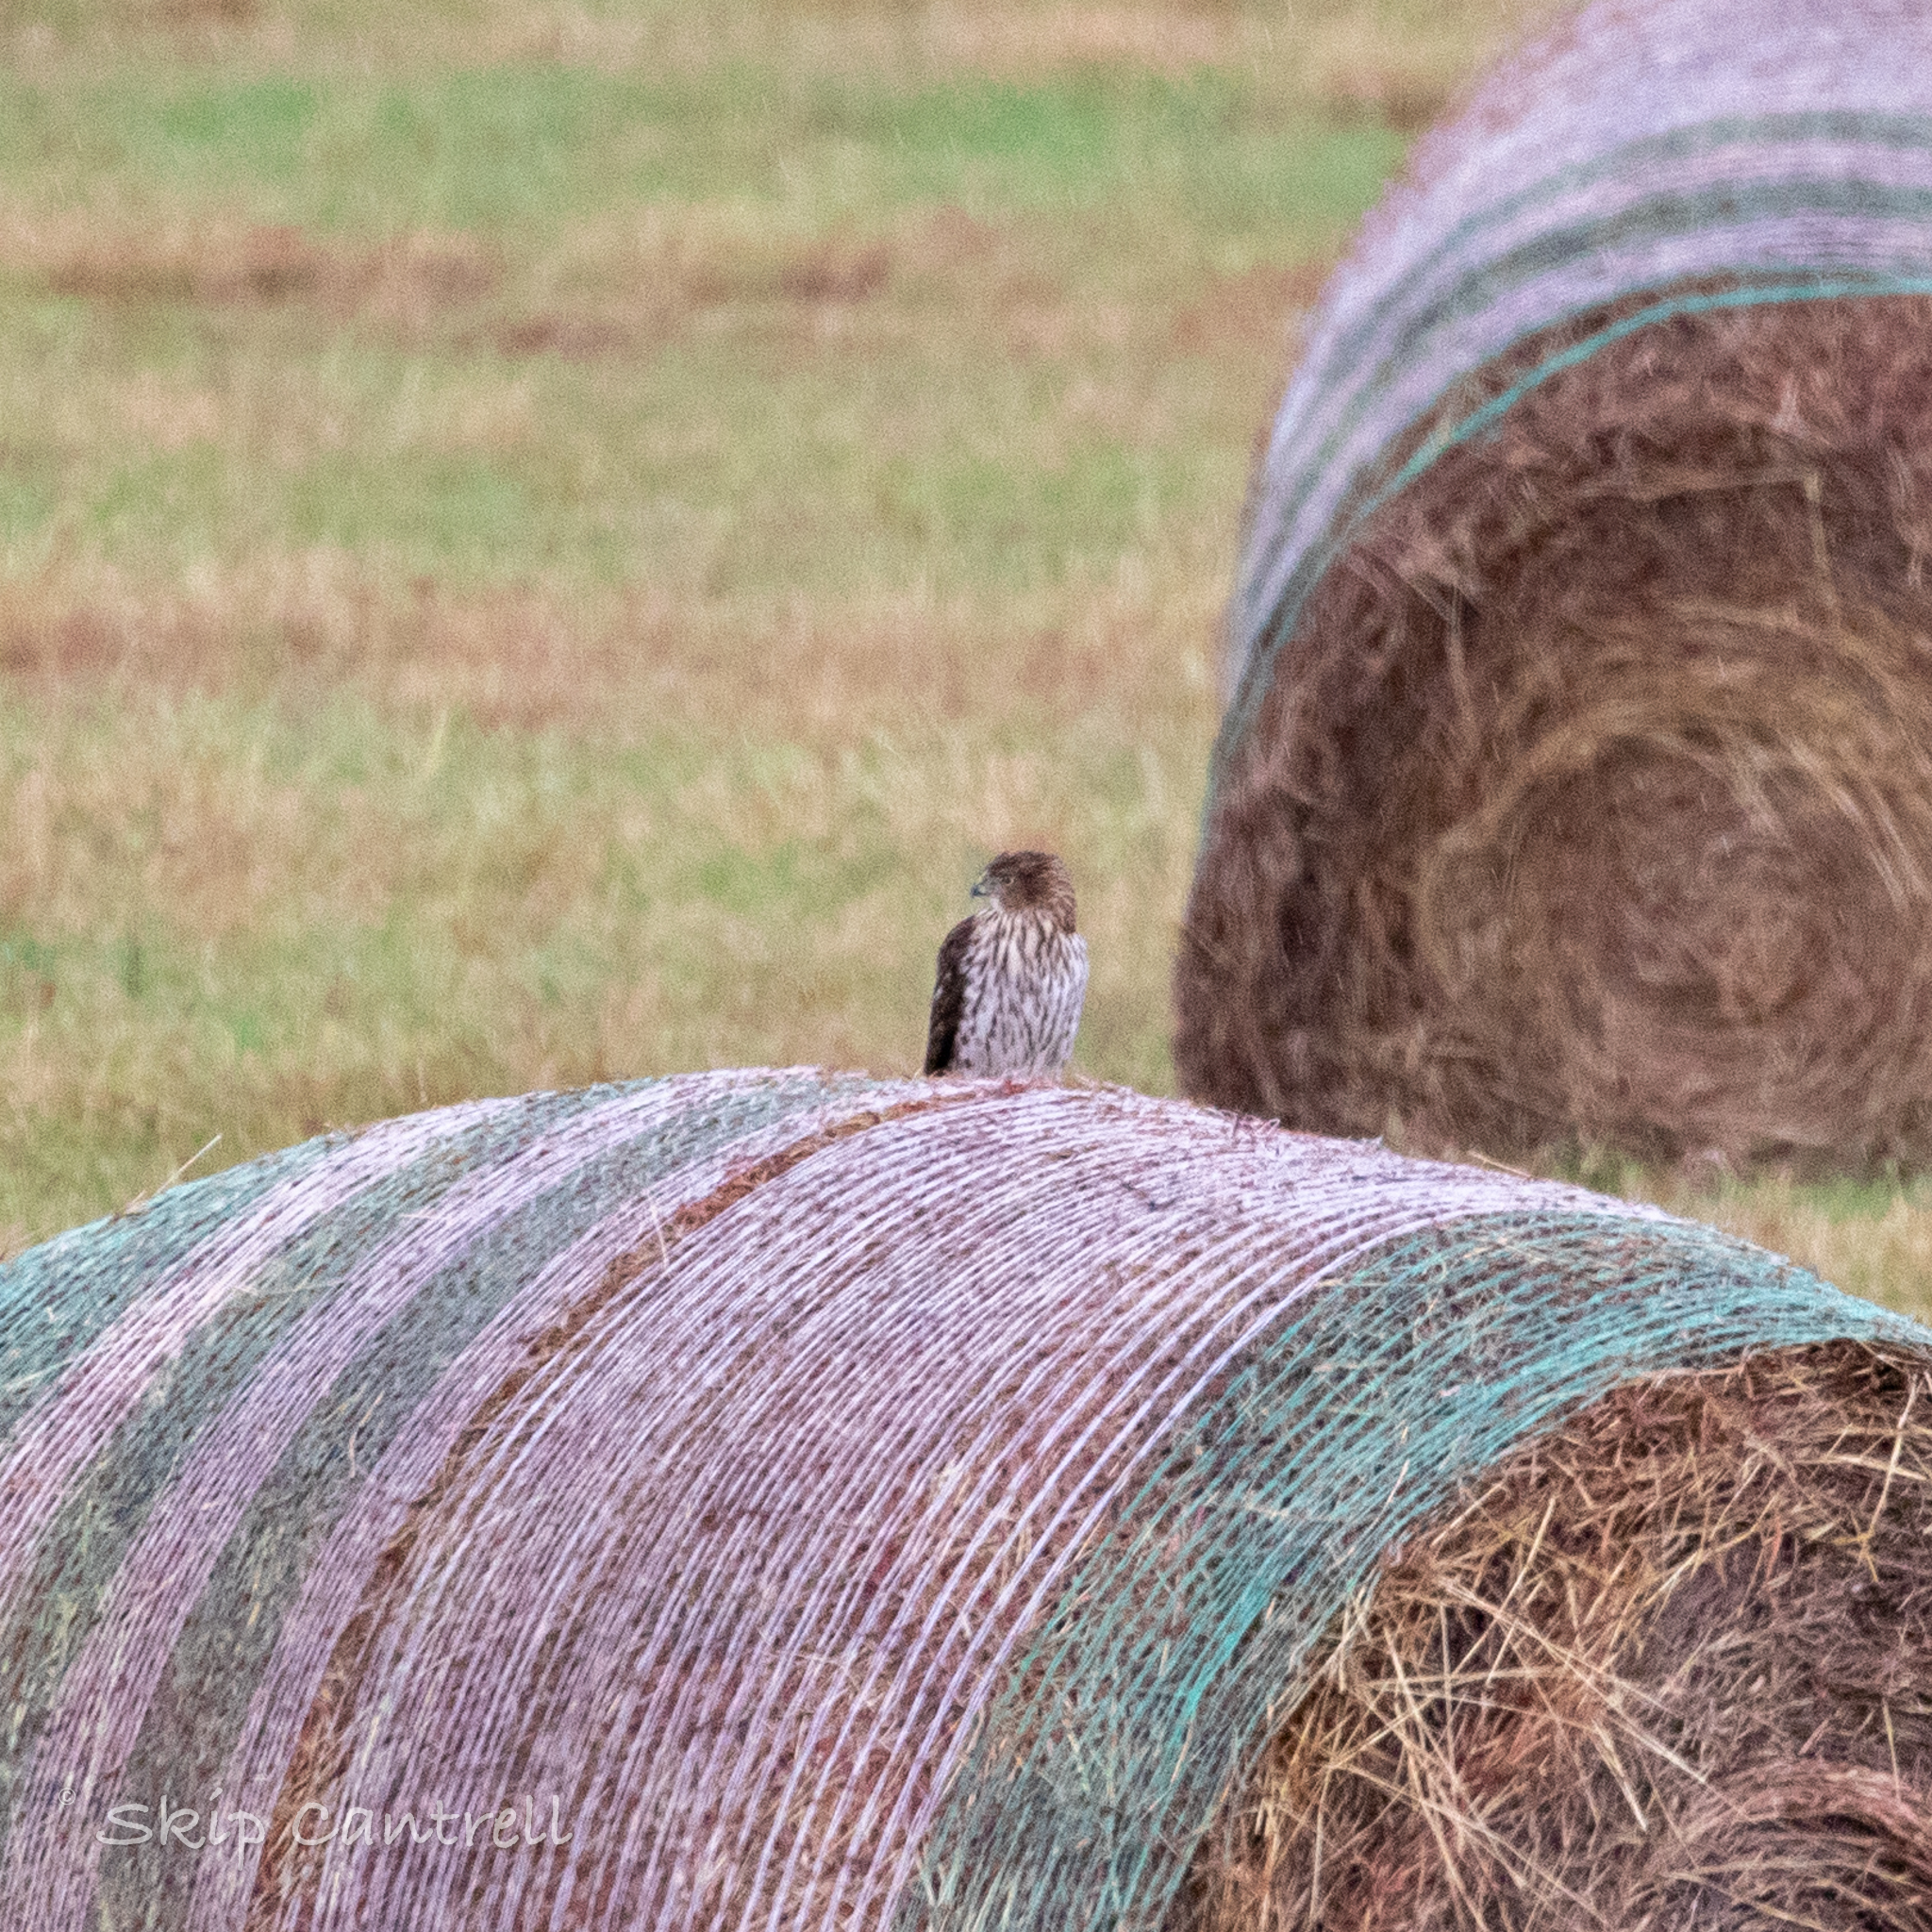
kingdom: Animalia
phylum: Chordata
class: Aves
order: Accipitriformes
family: Accipitridae
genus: Accipiter
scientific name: Accipiter cooperii
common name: Cooper's hawk
